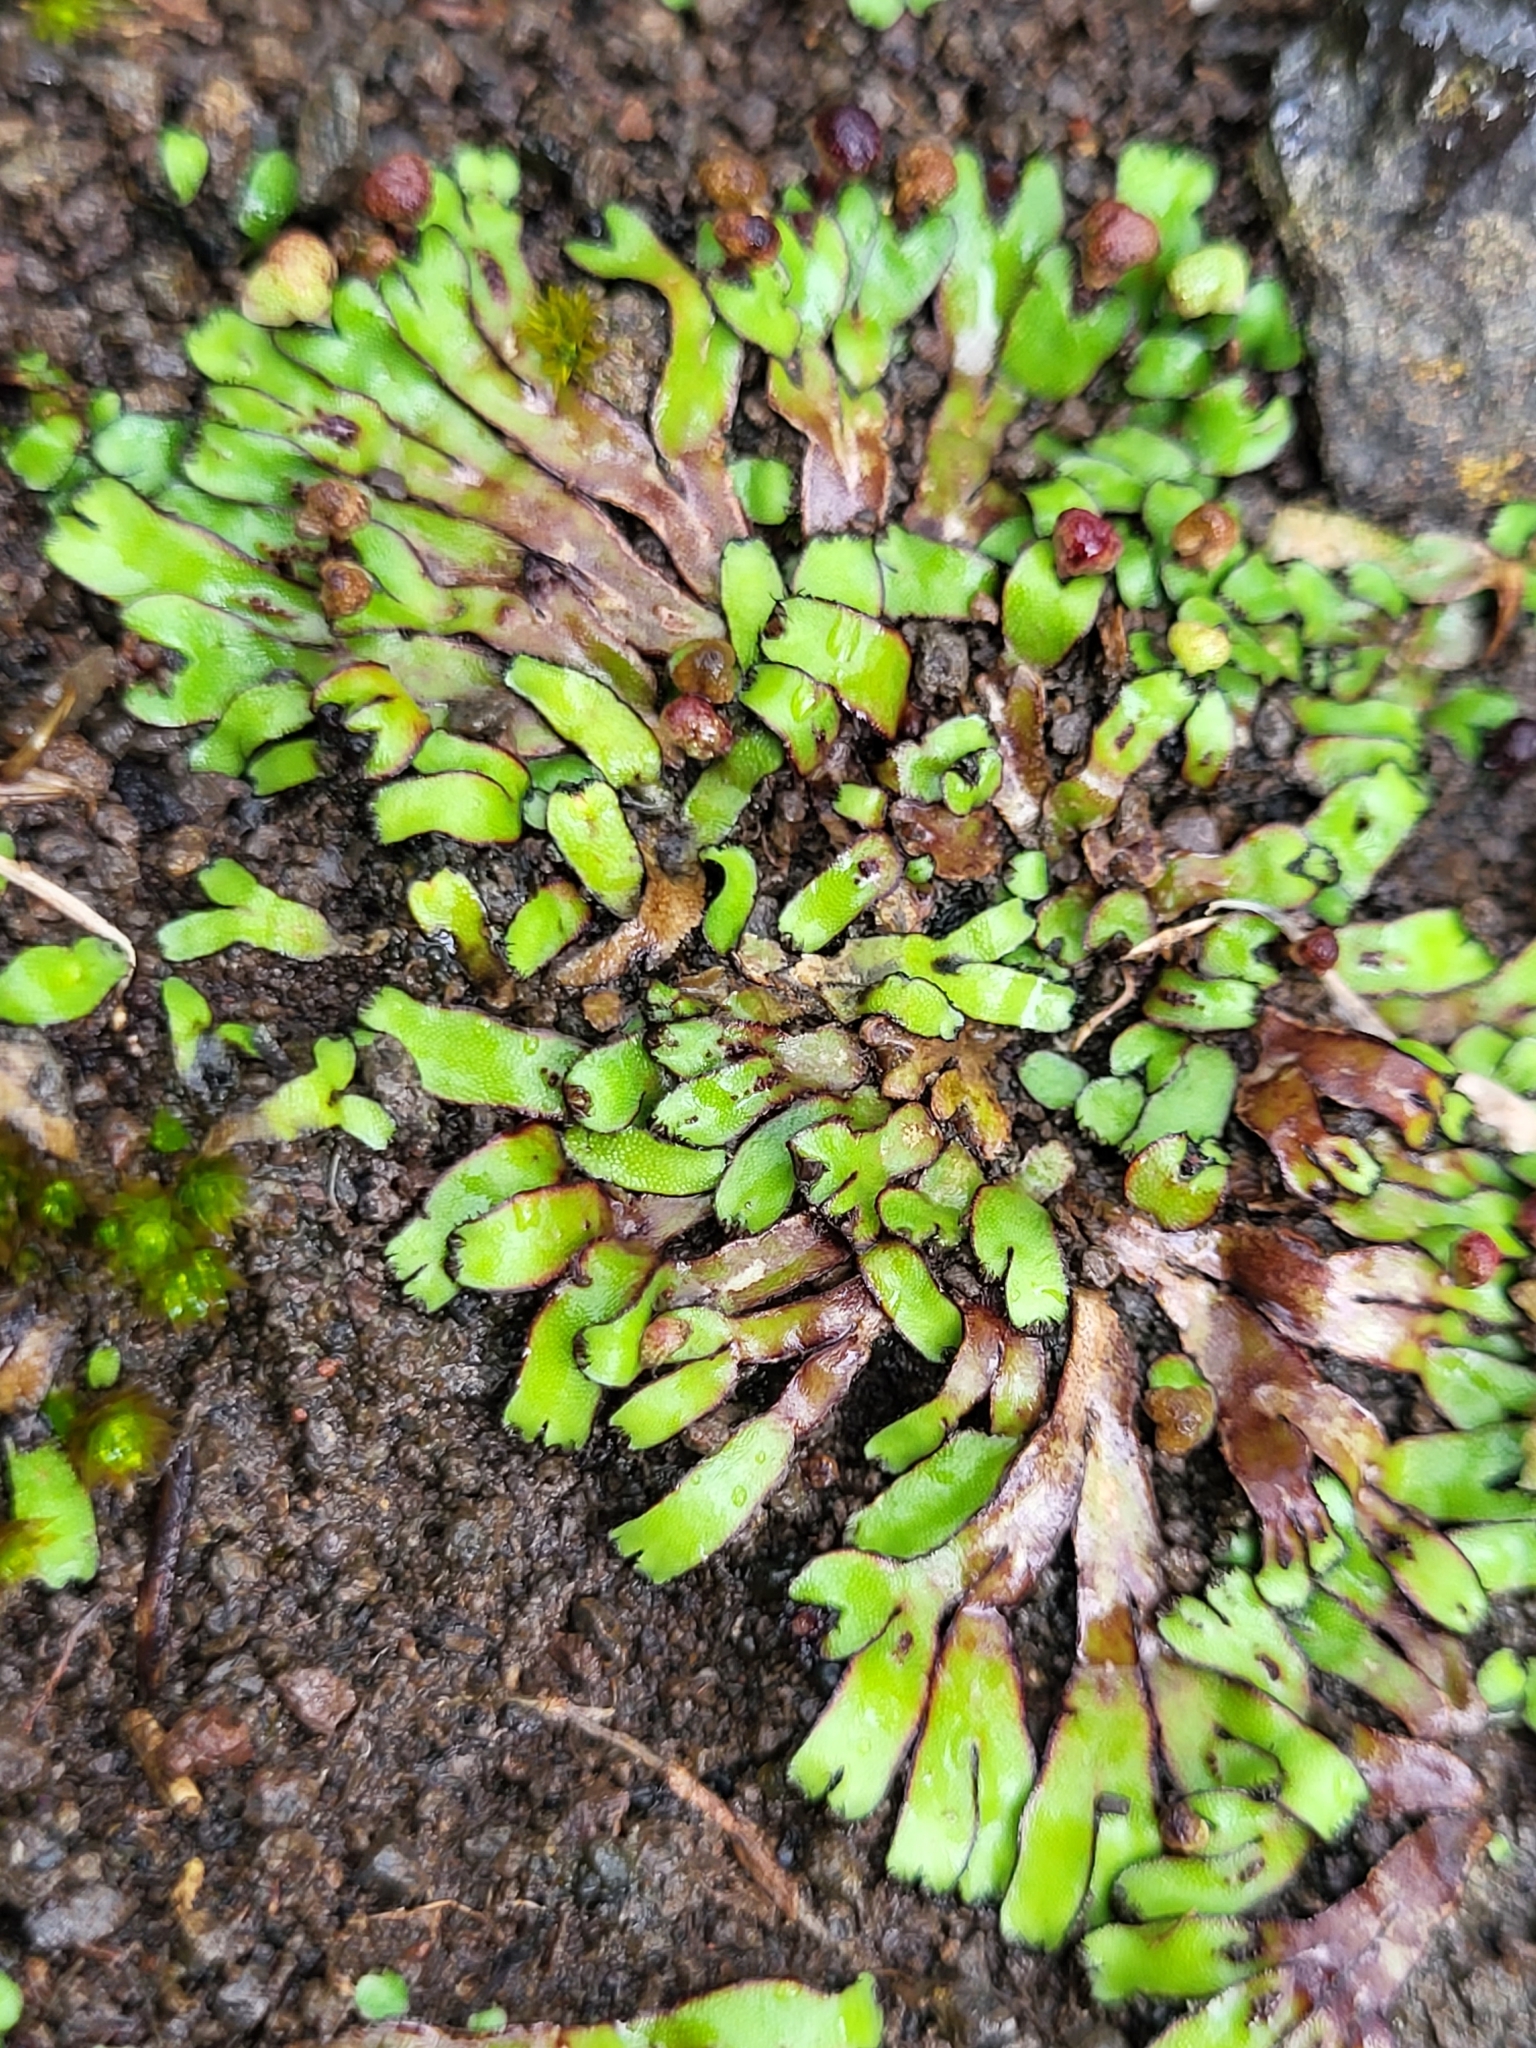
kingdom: Plantae
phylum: Marchantiophyta
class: Marchantiopsida
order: Marchantiales
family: Aytoniaceae
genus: Mannia
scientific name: Mannia androgyna
